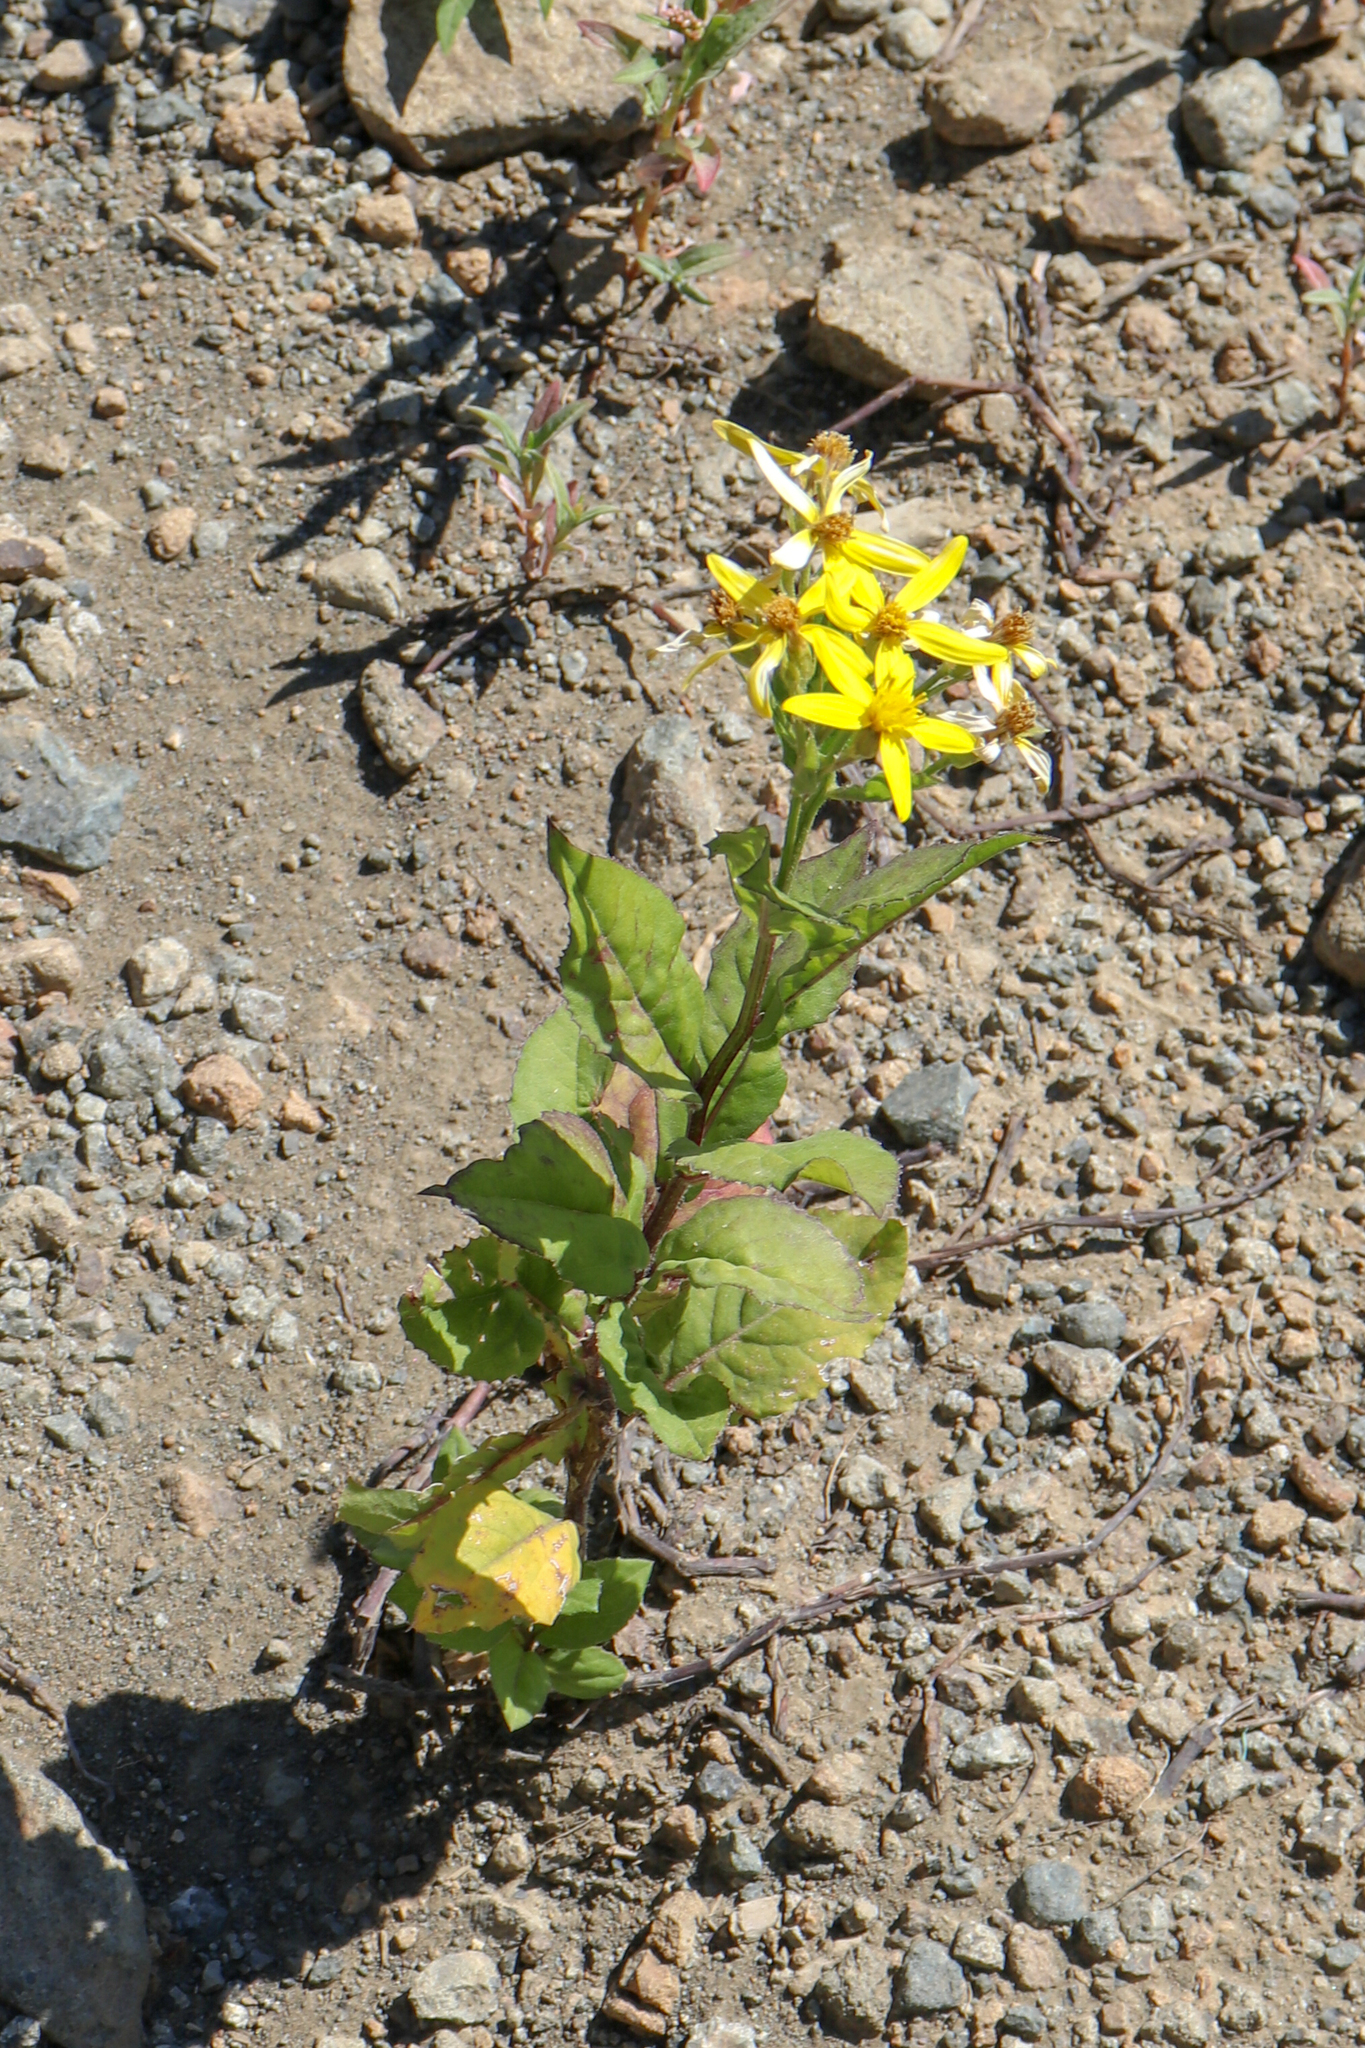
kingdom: Plantae
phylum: Tracheophyta
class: Magnoliopsida
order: Asterales
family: Asteraceae
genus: Senecio
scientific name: Senecio propinquus
